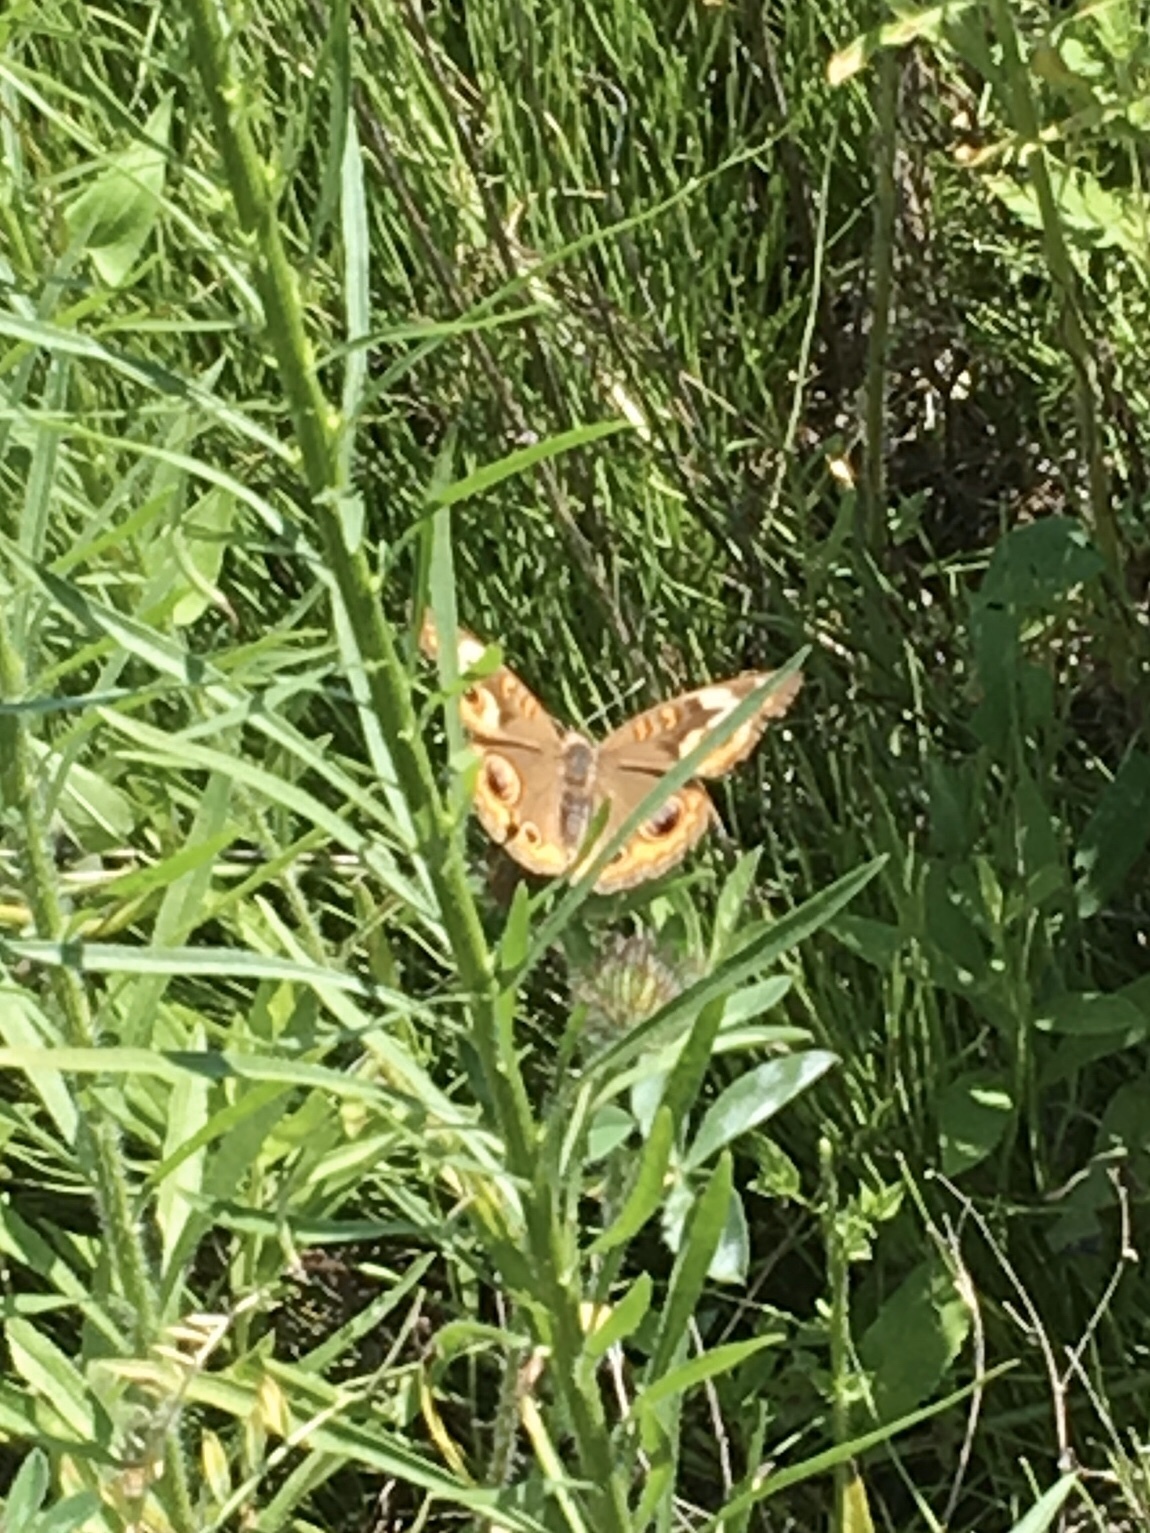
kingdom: Animalia
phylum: Arthropoda
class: Insecta
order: Lepidoptera
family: Nymphalidae
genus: Junonia
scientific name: Junonia coenia
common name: Common buckeye
